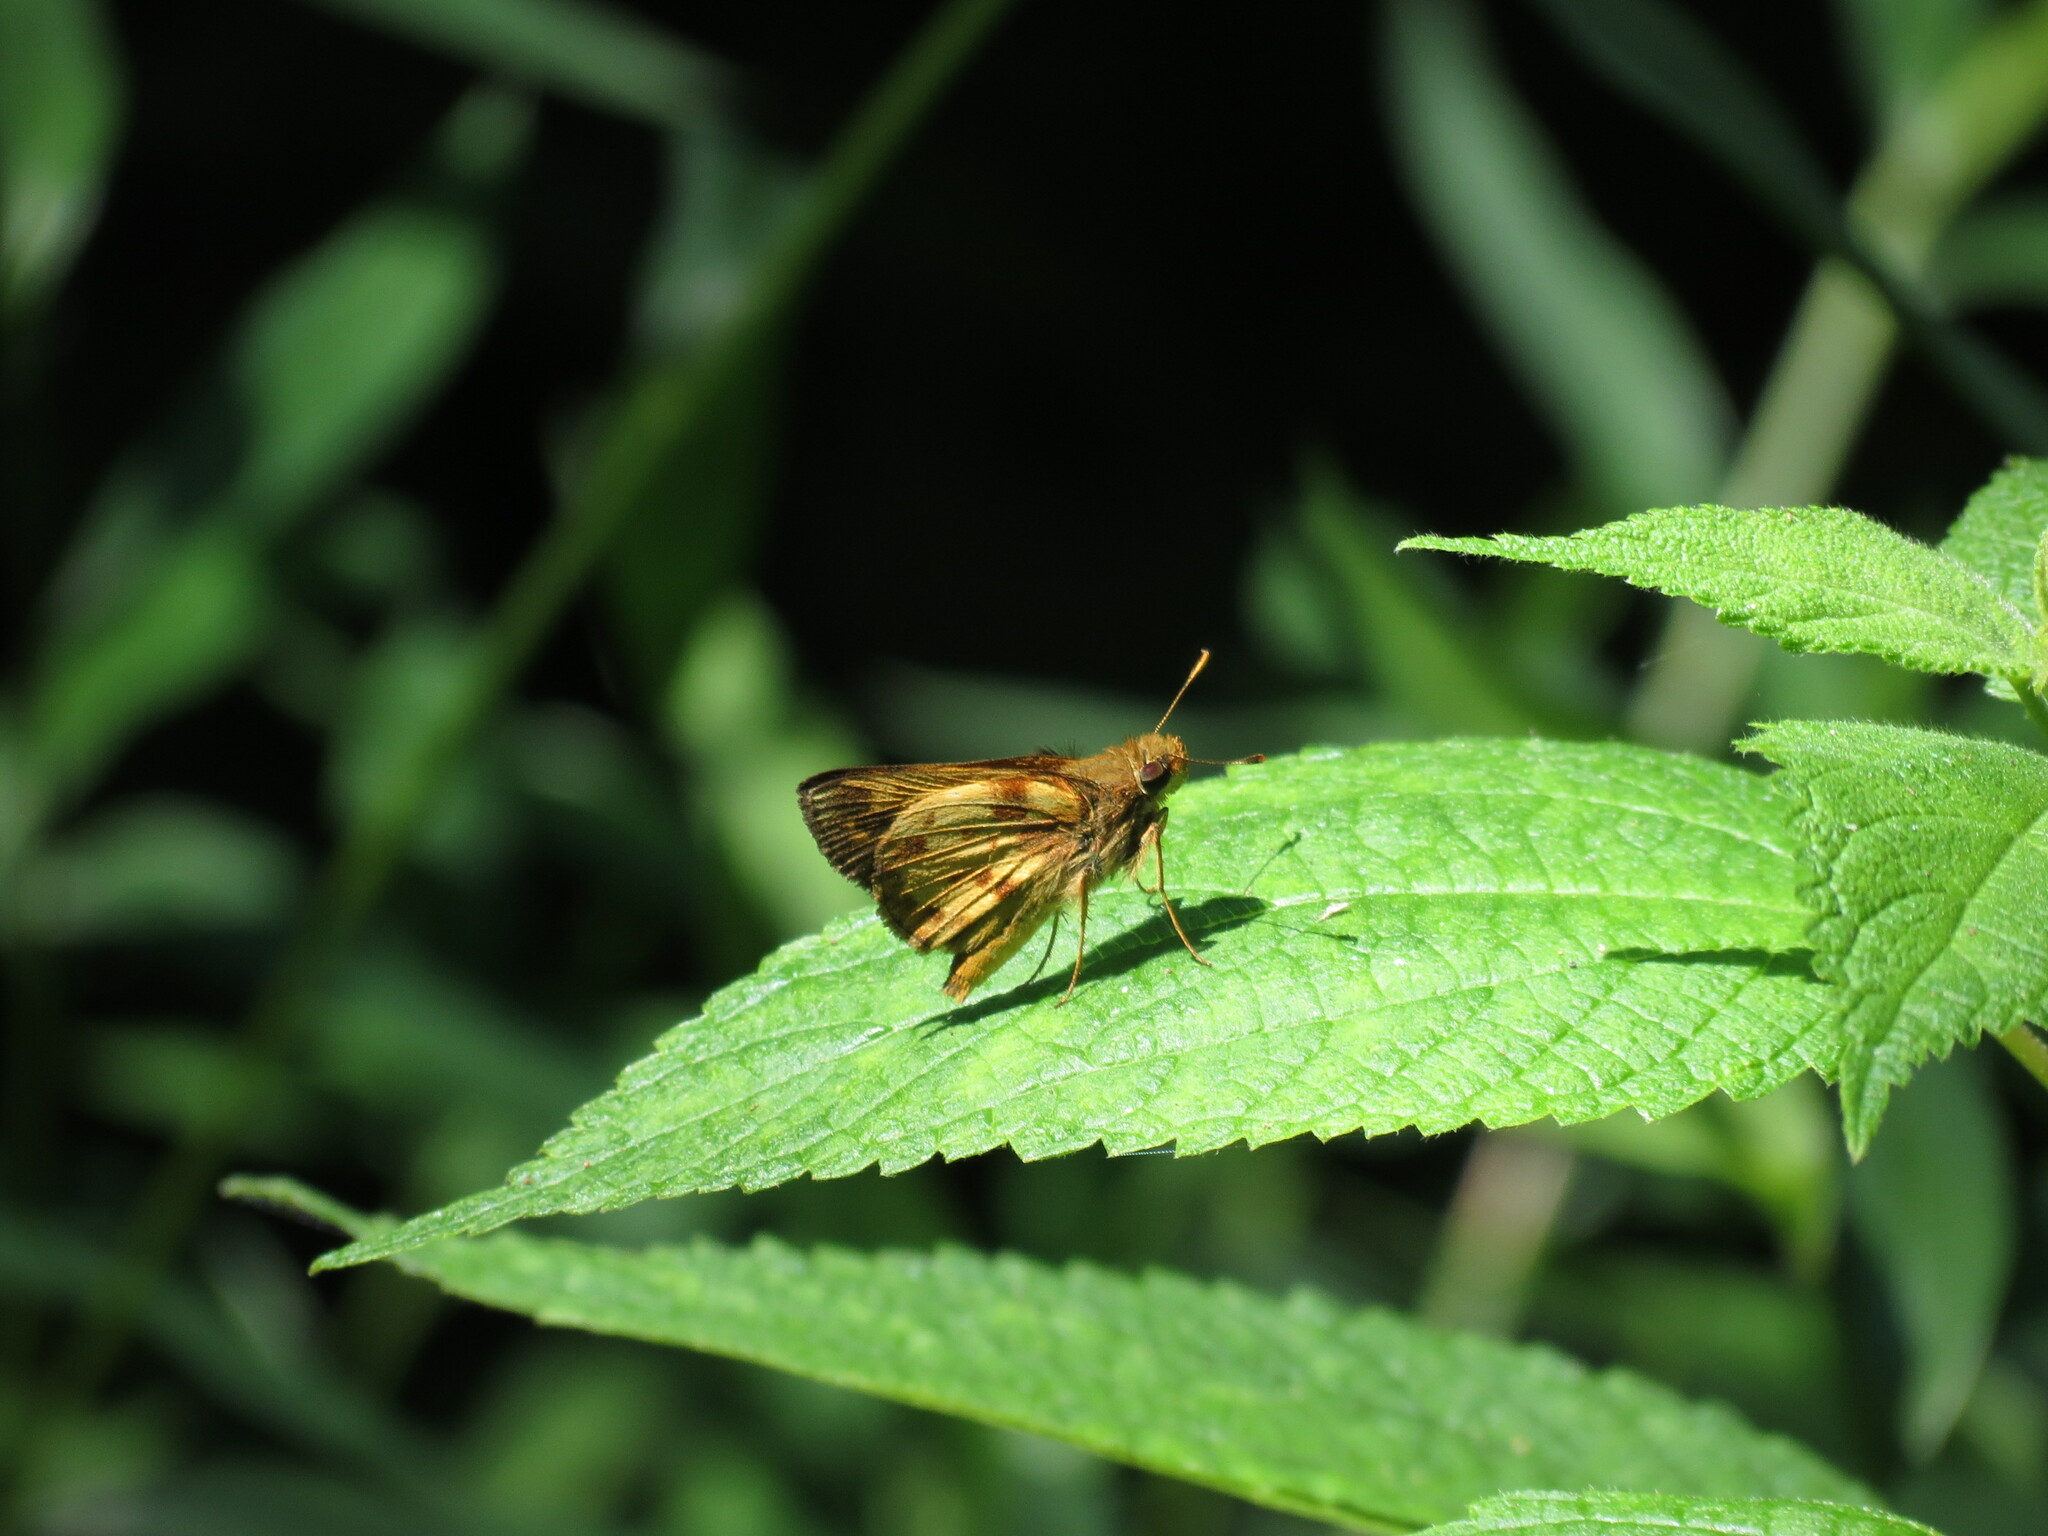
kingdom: Animalia
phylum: Arthropoda
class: Insecta
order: Lepidoptera
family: Hesperiidae
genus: Lon
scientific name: Lon zabulon
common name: Zabulon skipper
